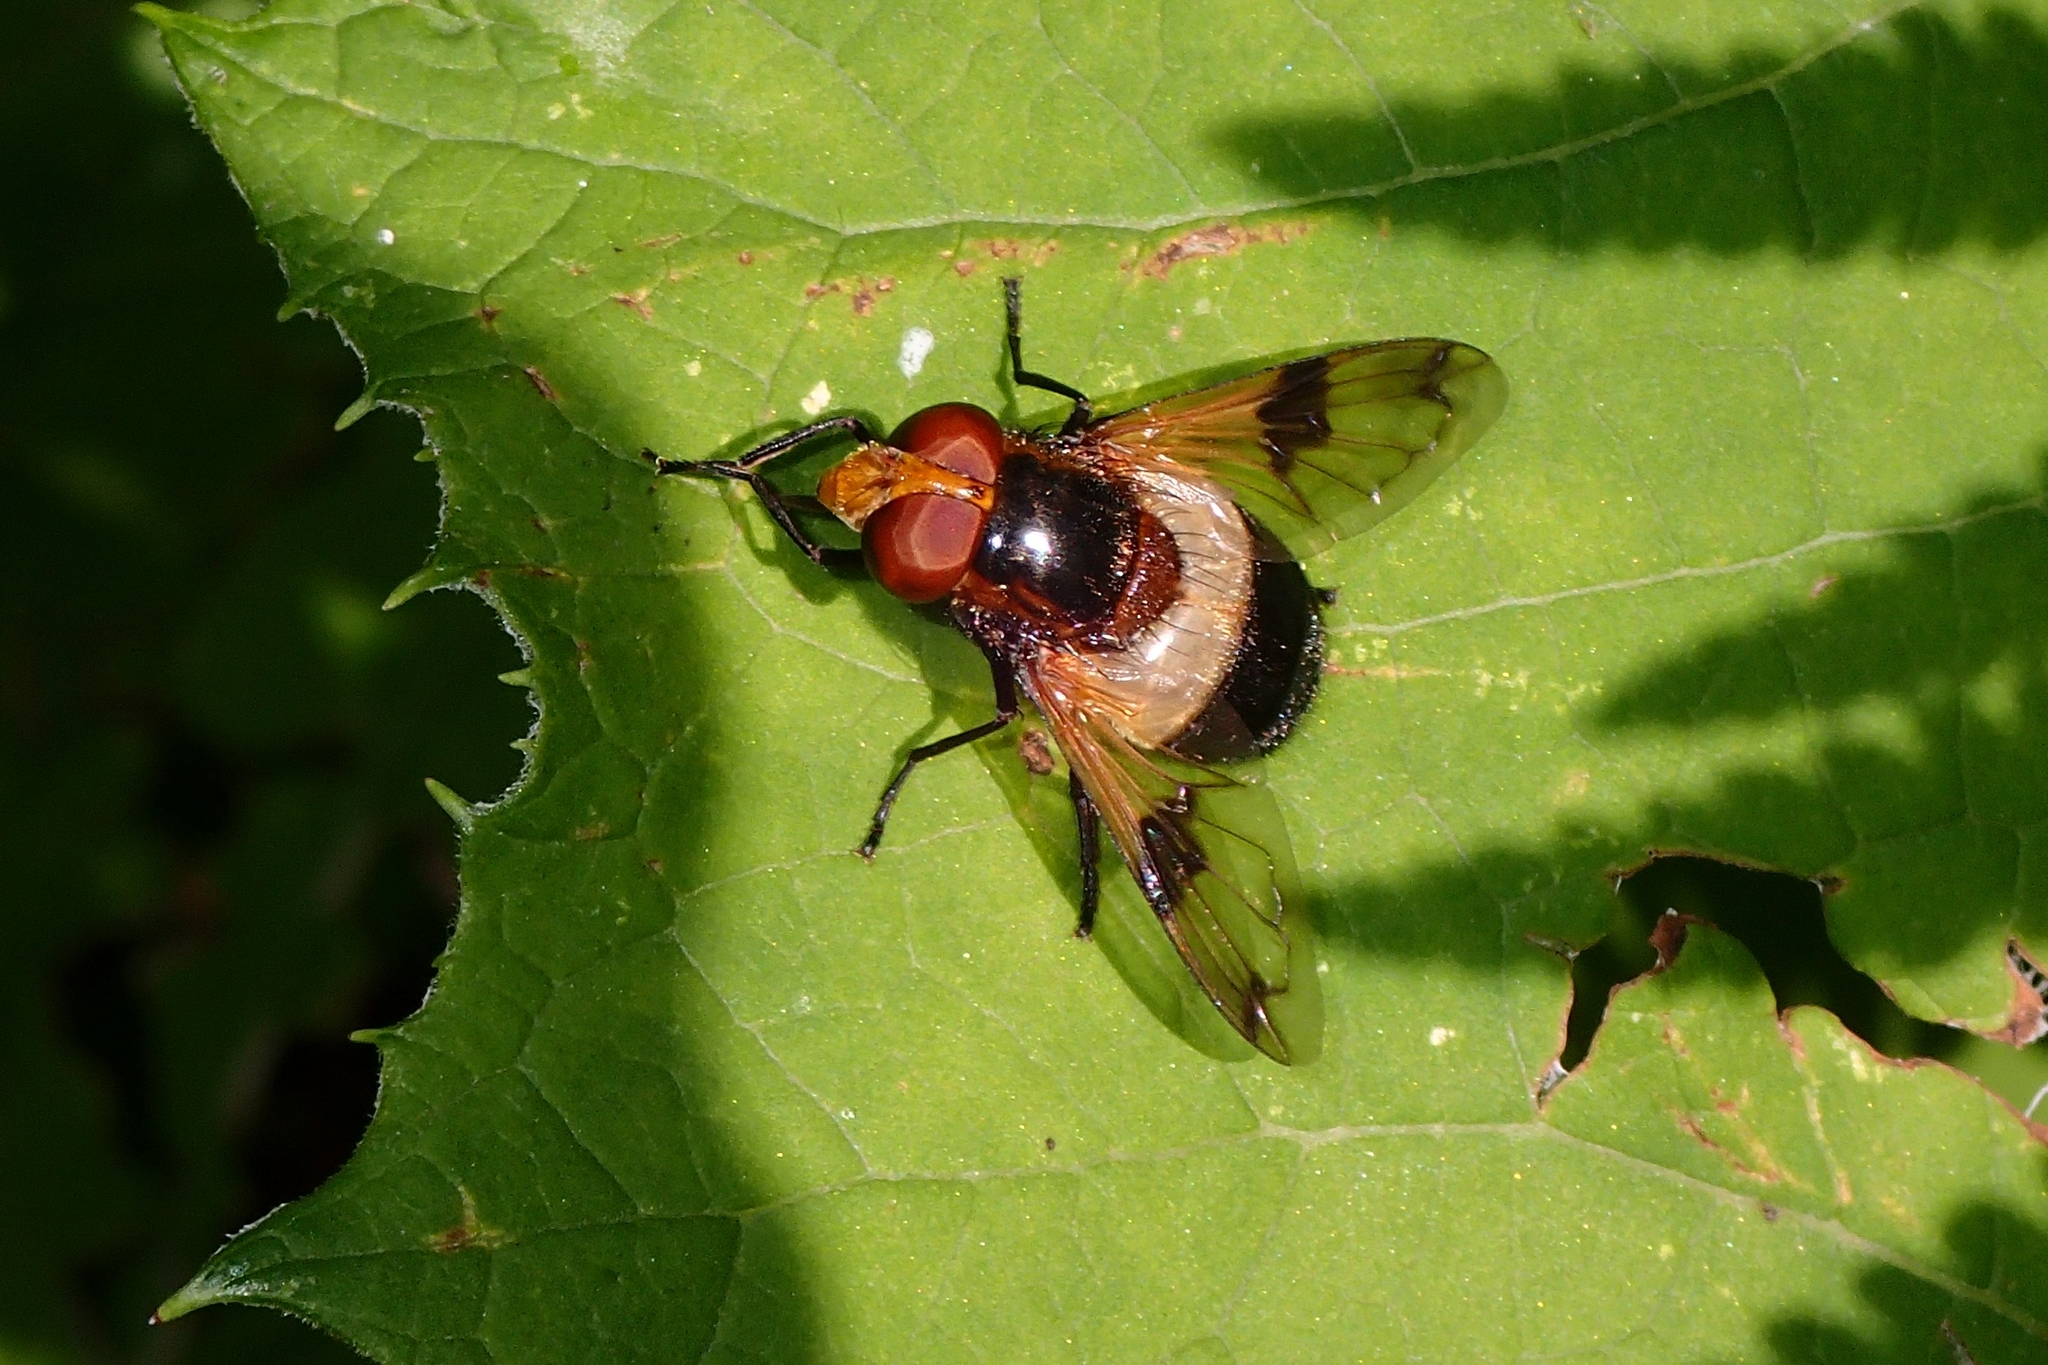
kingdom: Animalia
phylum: Arthropoda
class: Insecta
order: Diptera
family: Syrphidae
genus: Volucella
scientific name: Volucella pellucens
